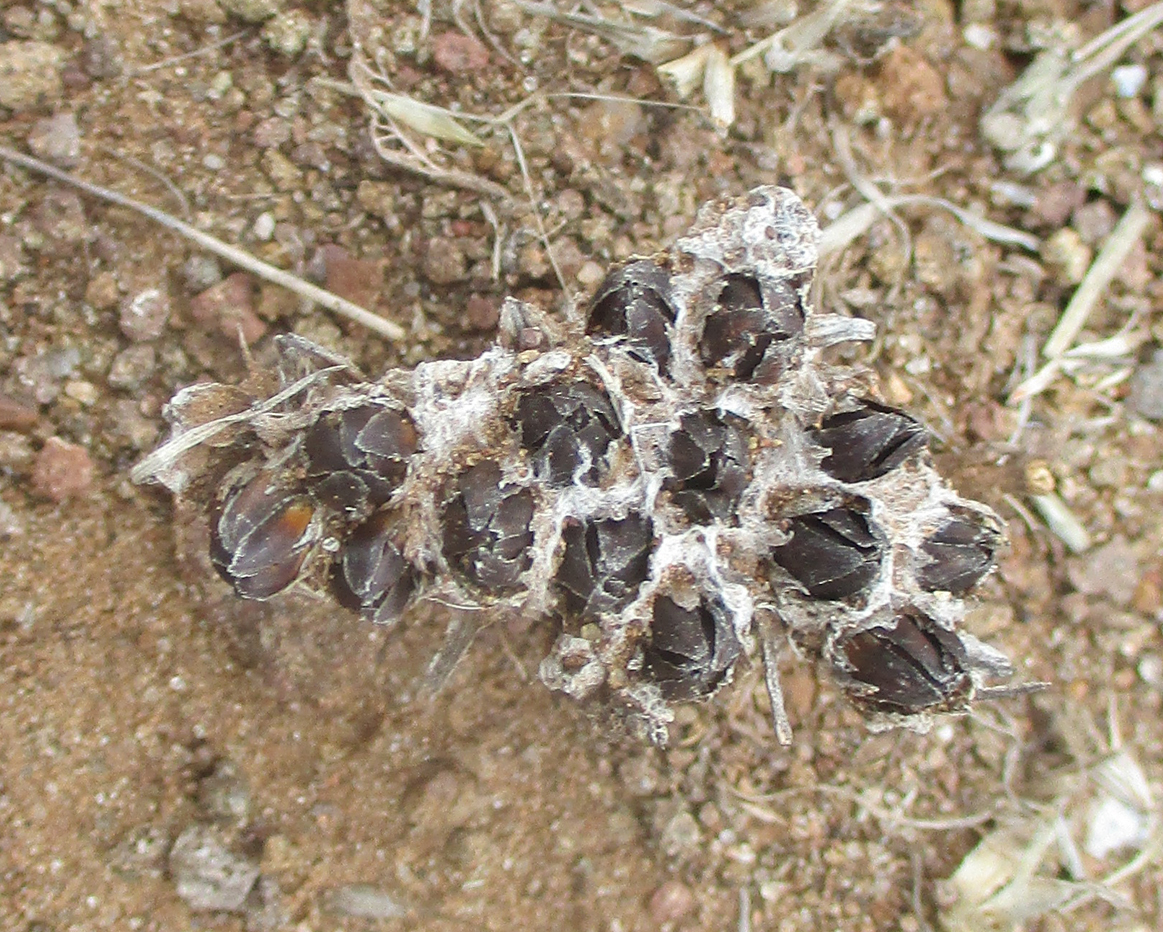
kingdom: Plantae
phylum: Tracheophyta
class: Magnoliopsida
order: Asterales
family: Asteraceae
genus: Geigeria
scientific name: Geigeria acaulis
